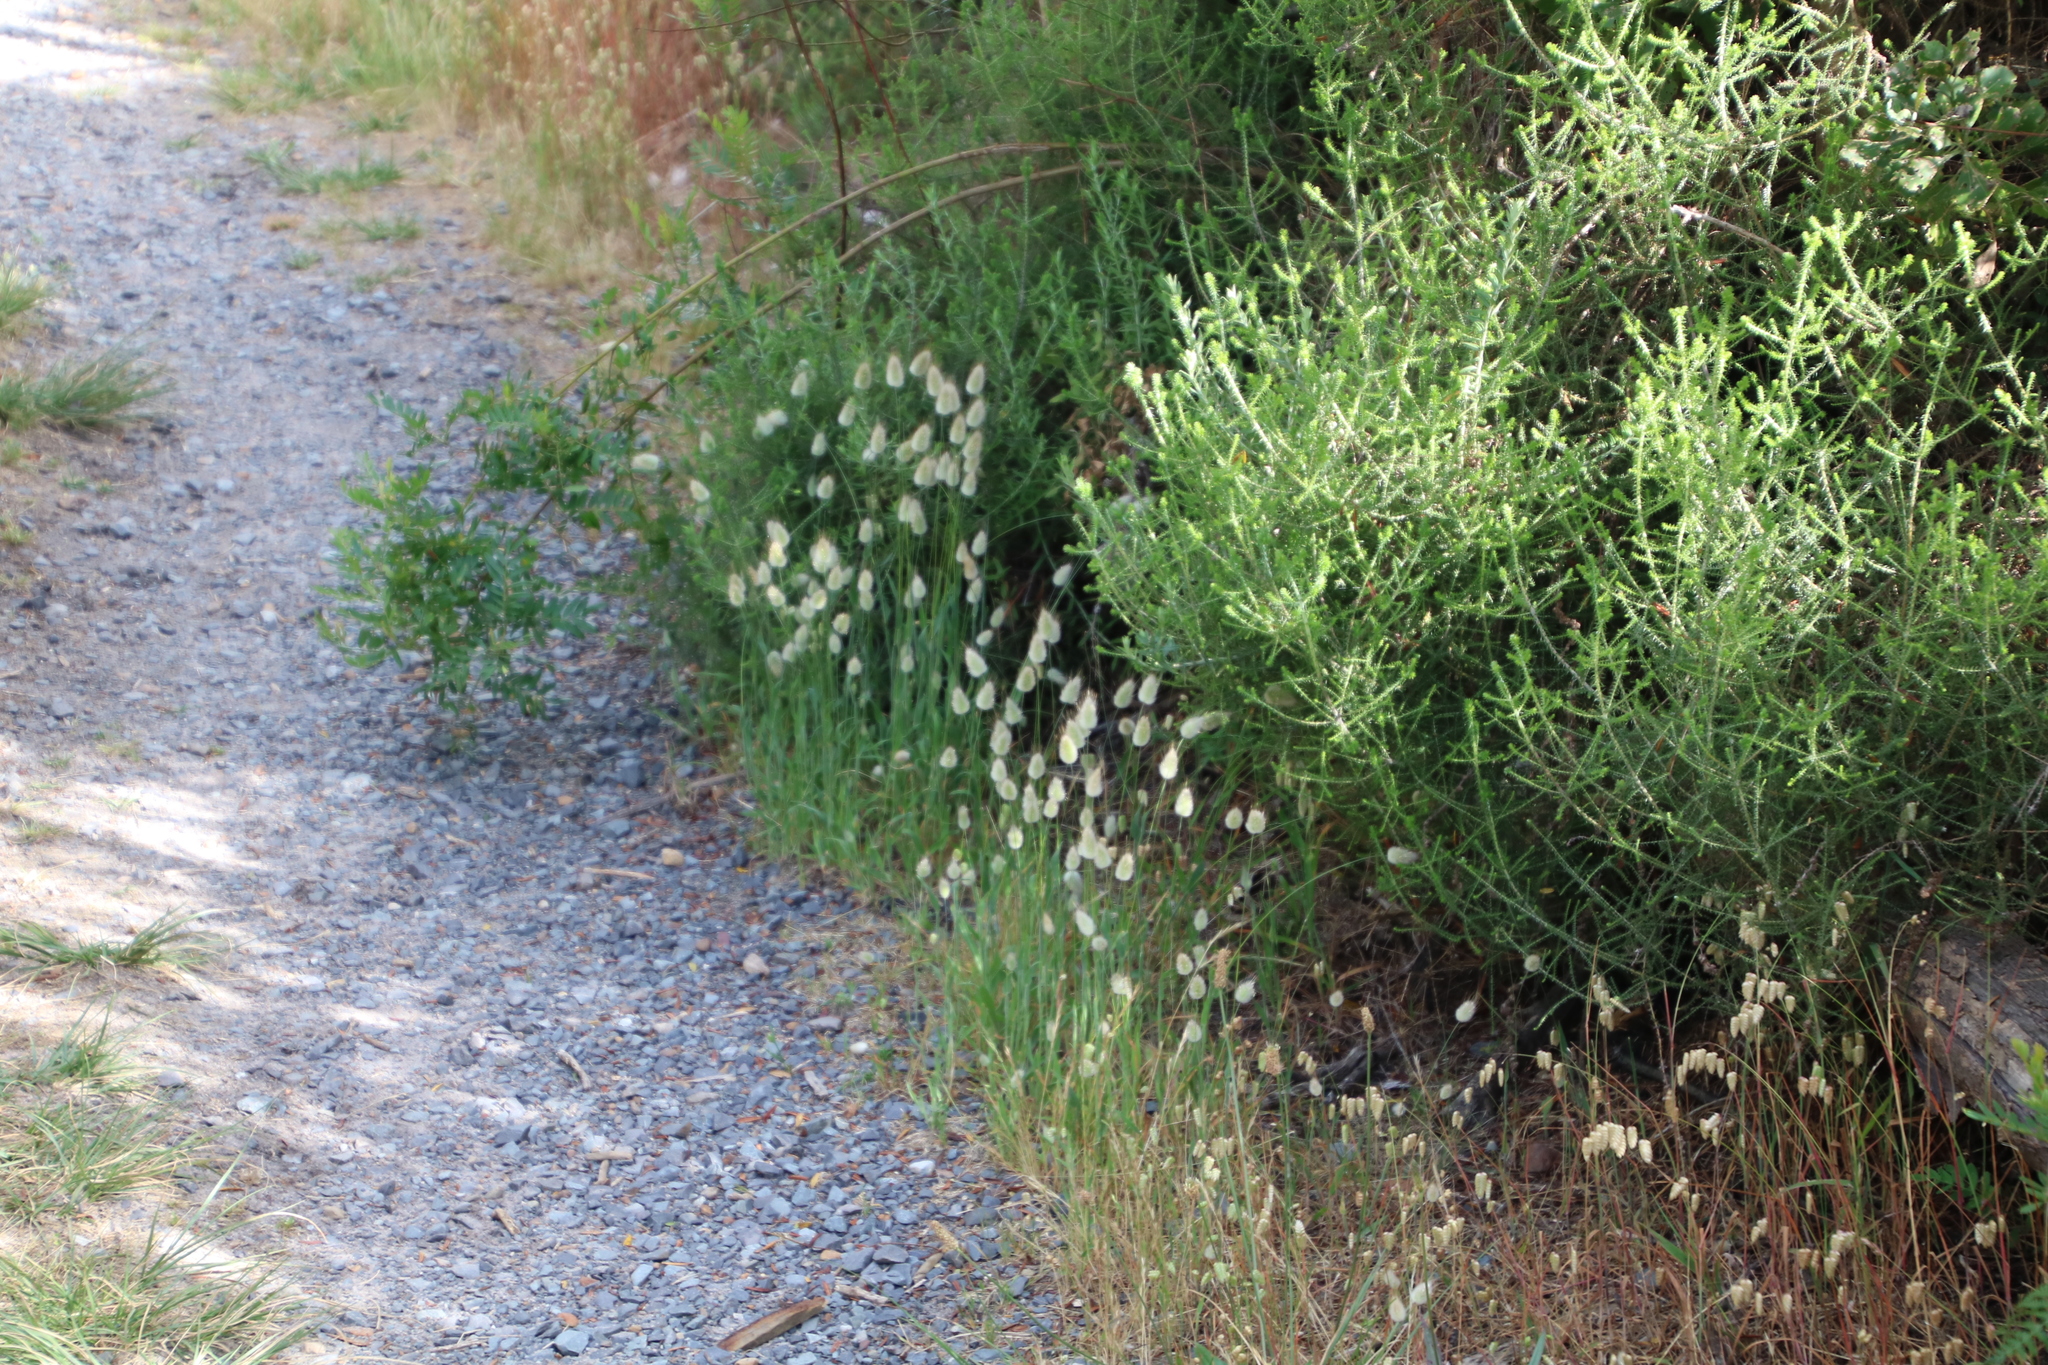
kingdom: Plantae
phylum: Tracheophyta
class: Liliopsida
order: Poales
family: Poaceae
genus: Lagurus
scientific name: Lagurus ovatus
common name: Hare's-tail
